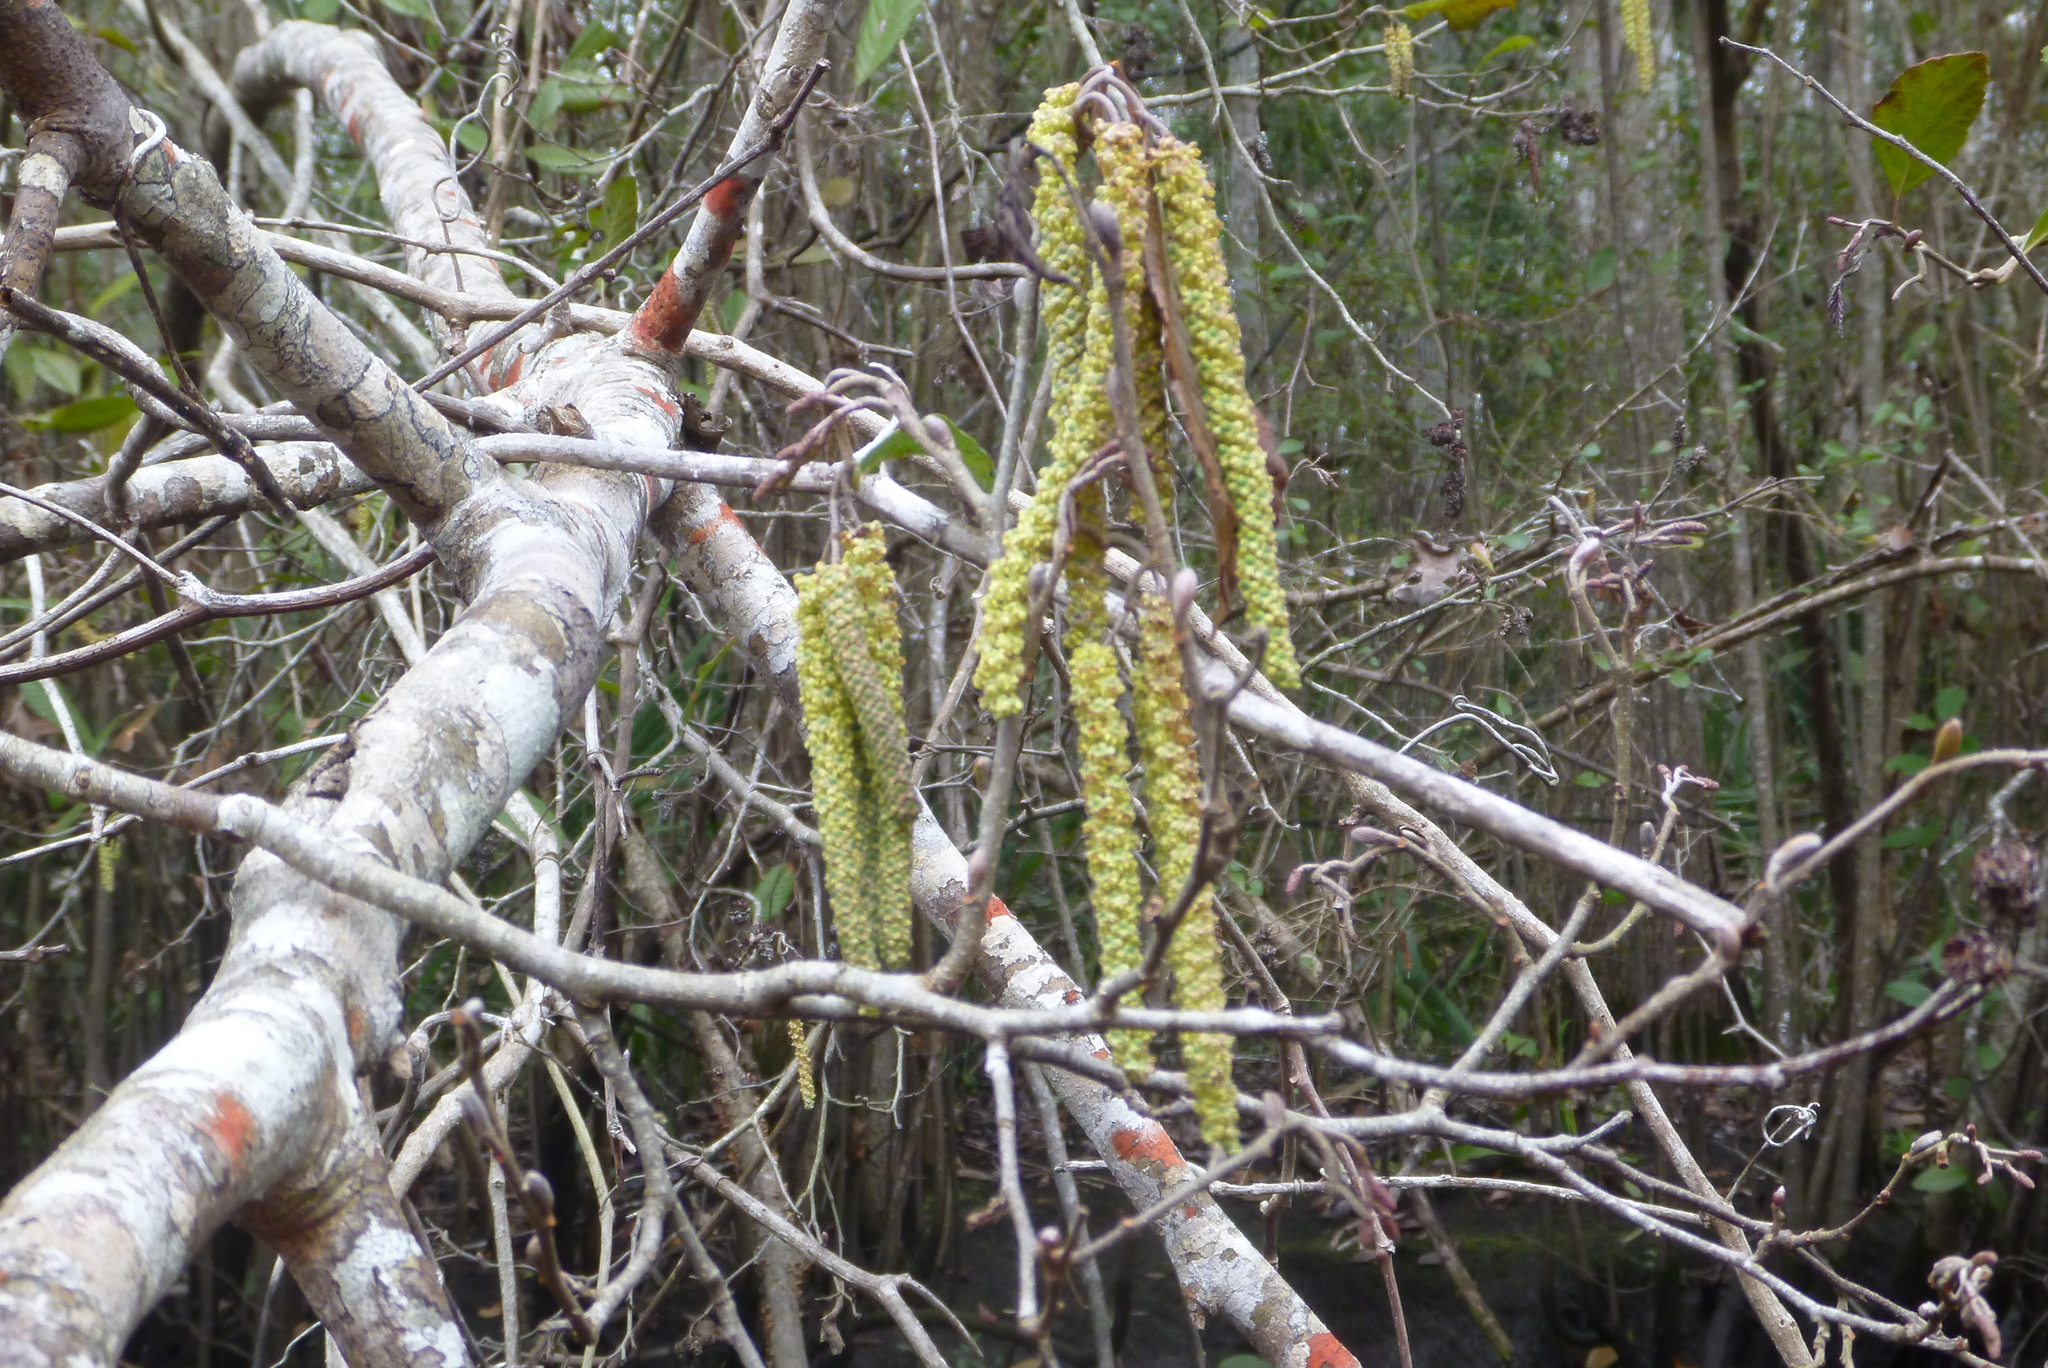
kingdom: Plantae
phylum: Tracheophyta
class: Magnoliopsida
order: Fagales
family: Betulaceae
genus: Alnus
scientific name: Alnus serrulata
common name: Hazel alder
